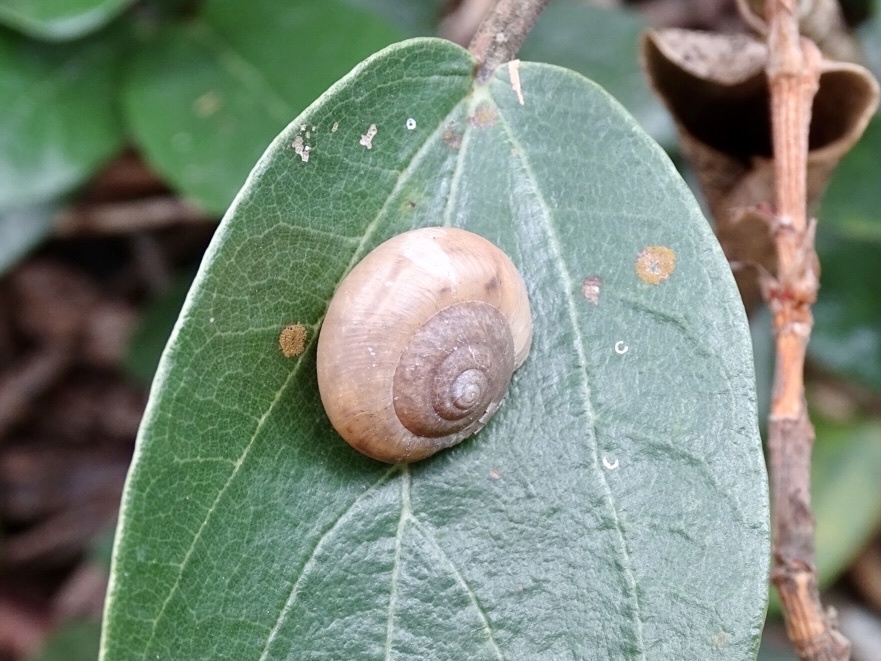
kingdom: Animalia
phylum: Mollusca
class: Gastropoda
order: Stylommatophora
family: Camaenidae
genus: Bradybaena
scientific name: Bradybaena similaris
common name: Asian trampsnail
